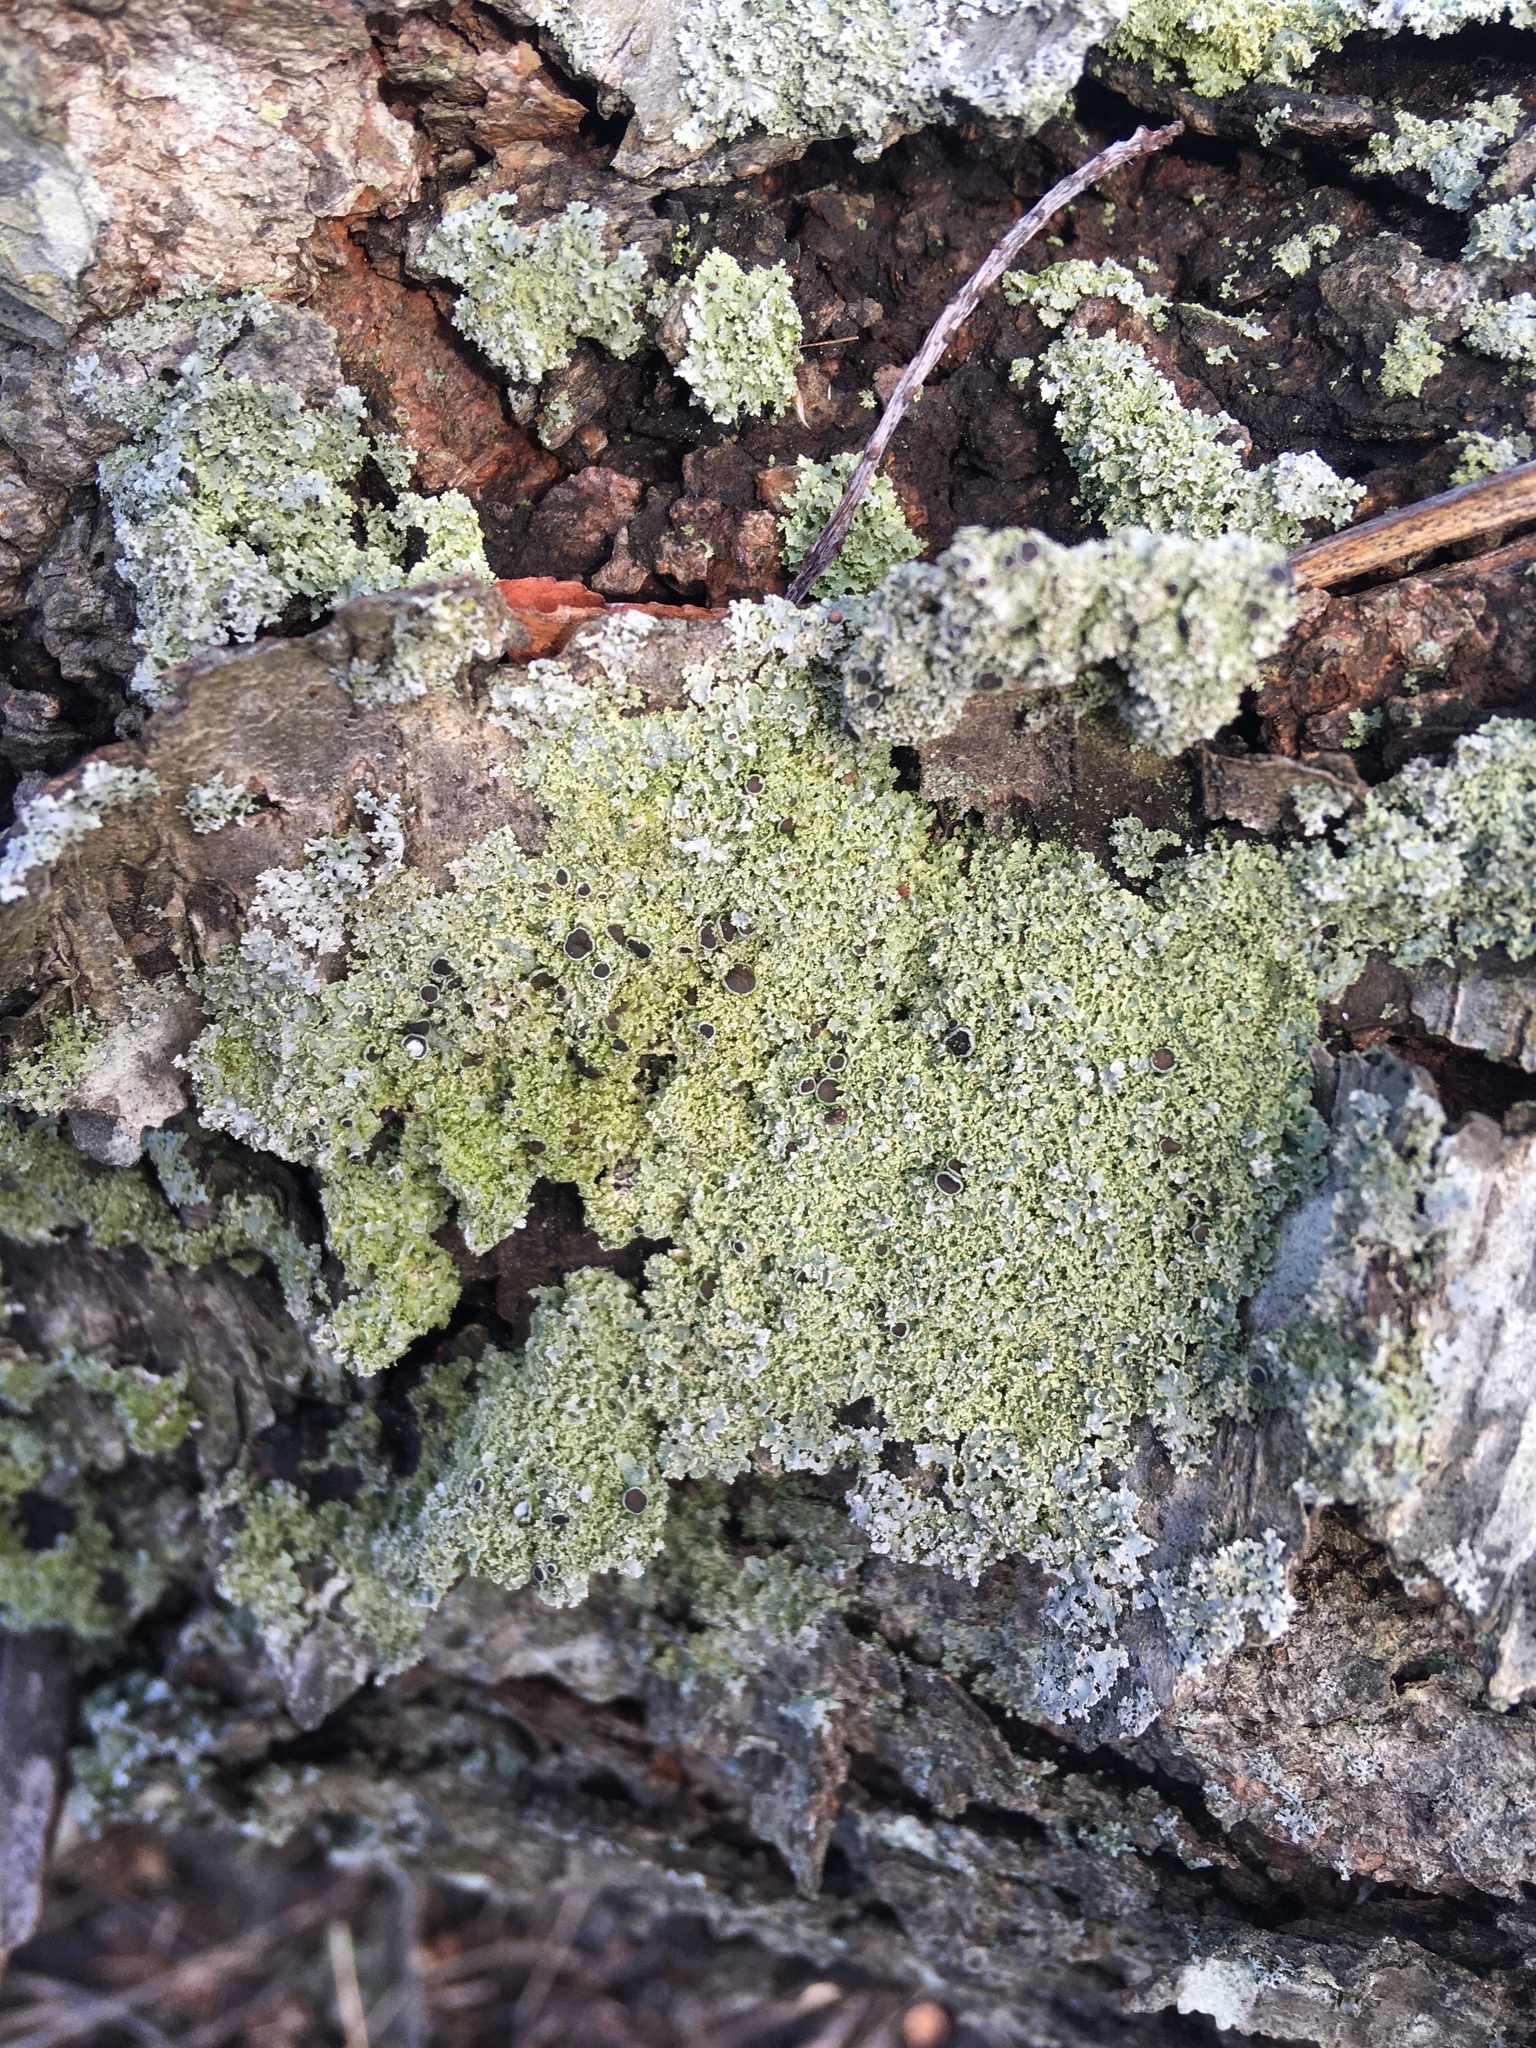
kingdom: Fungi
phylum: Ascomycota
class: Lecanoromycetes
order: Caliciales
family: Physciaceae
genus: Physcia
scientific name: Physcia millegrana
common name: Rosette lichen
